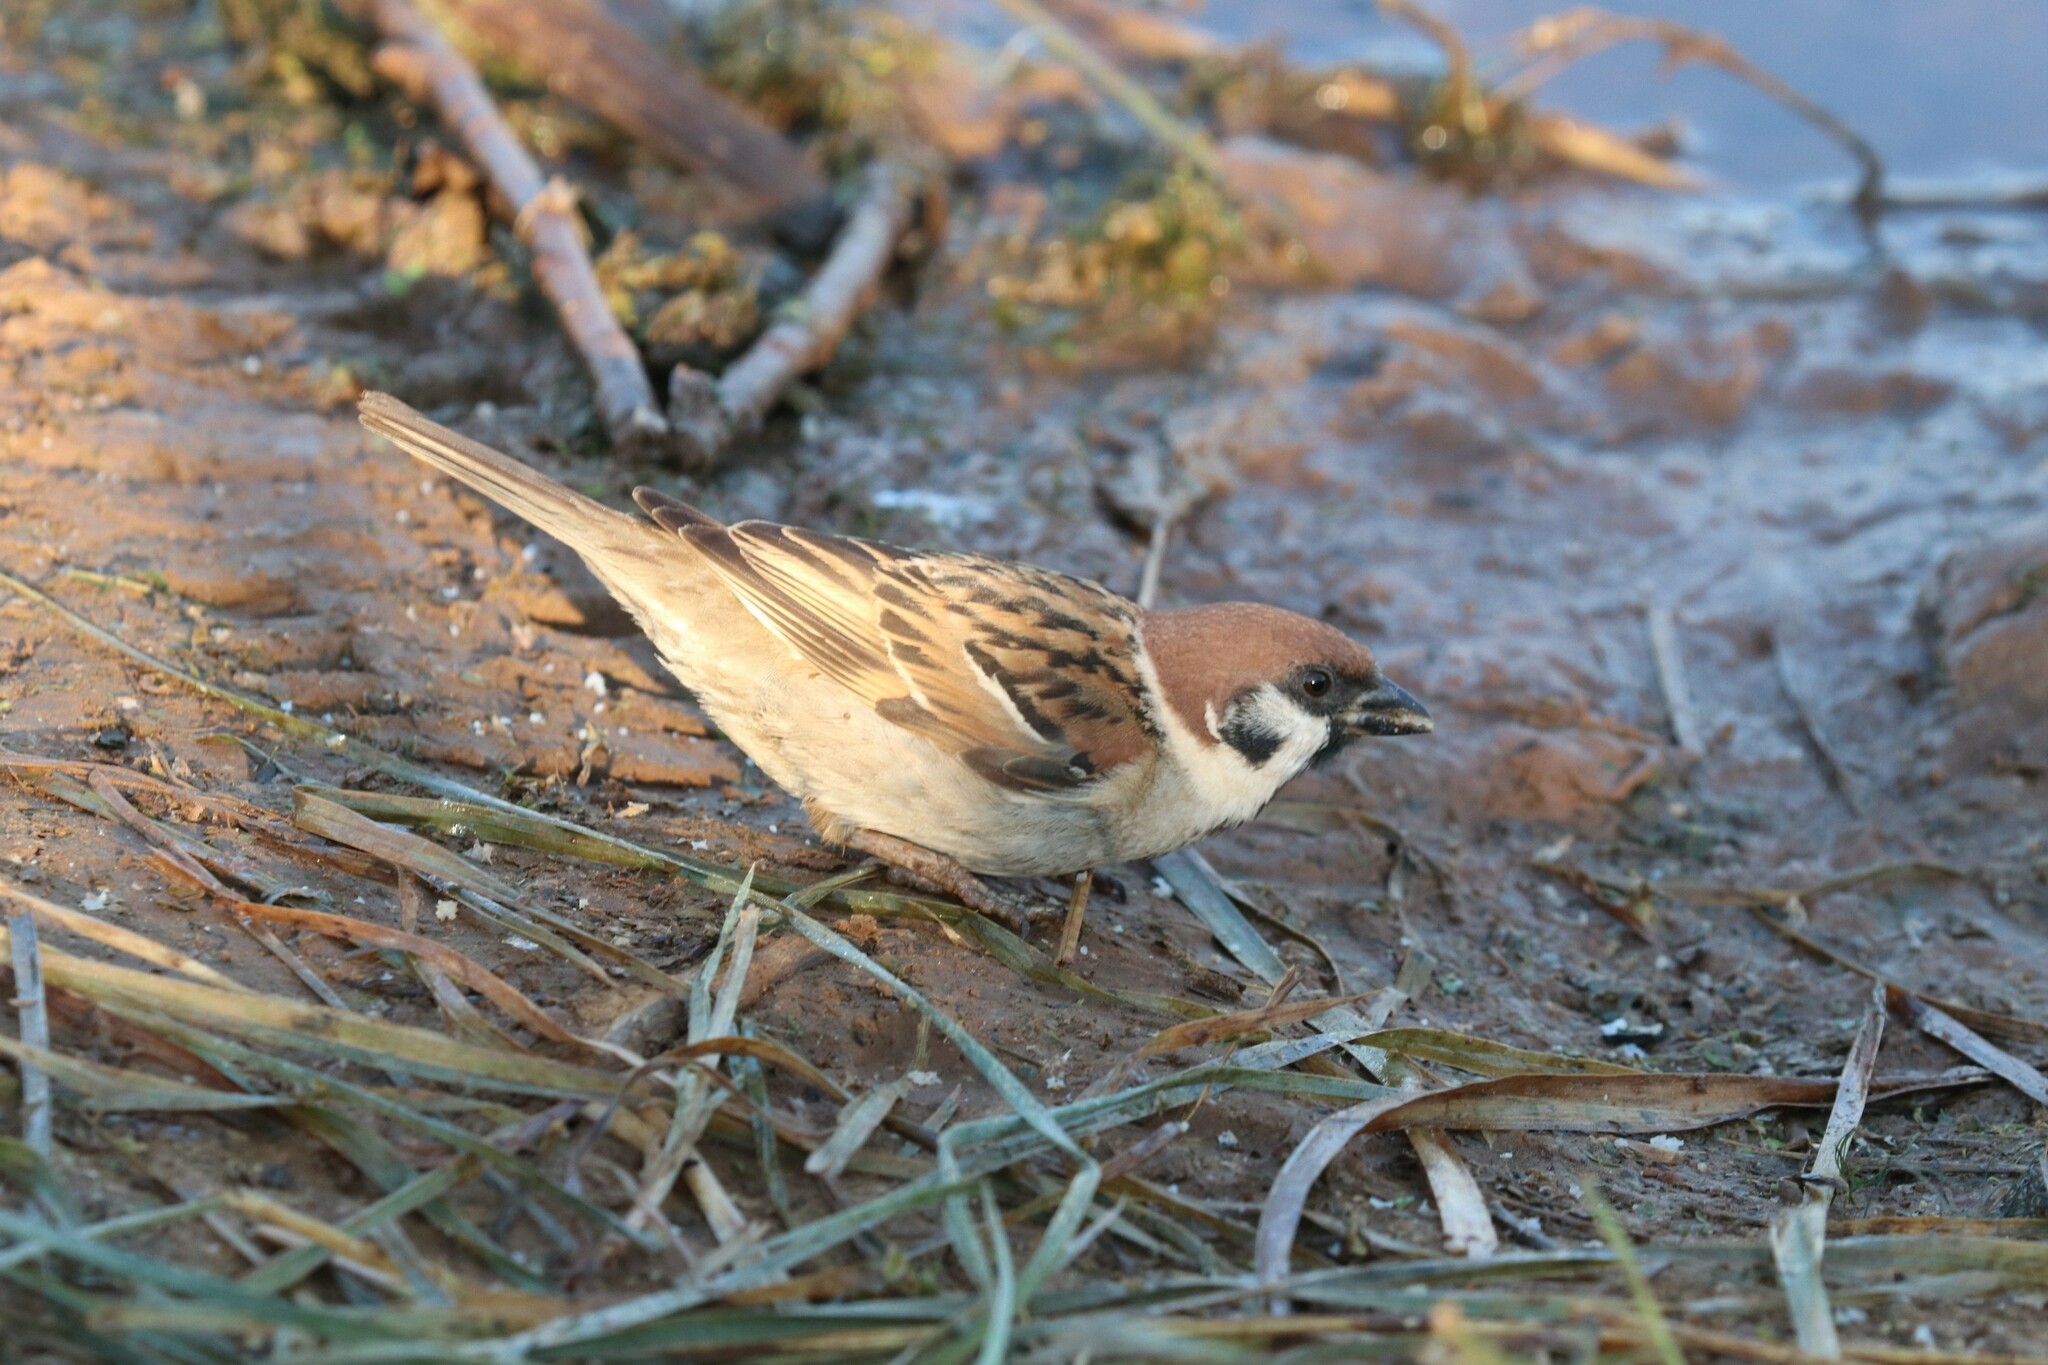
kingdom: Animalia
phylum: Chordata
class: Aves
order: Passeriformes
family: Passeridae
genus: Passer
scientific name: Passer montanus
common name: Eurasian tree sparrow
